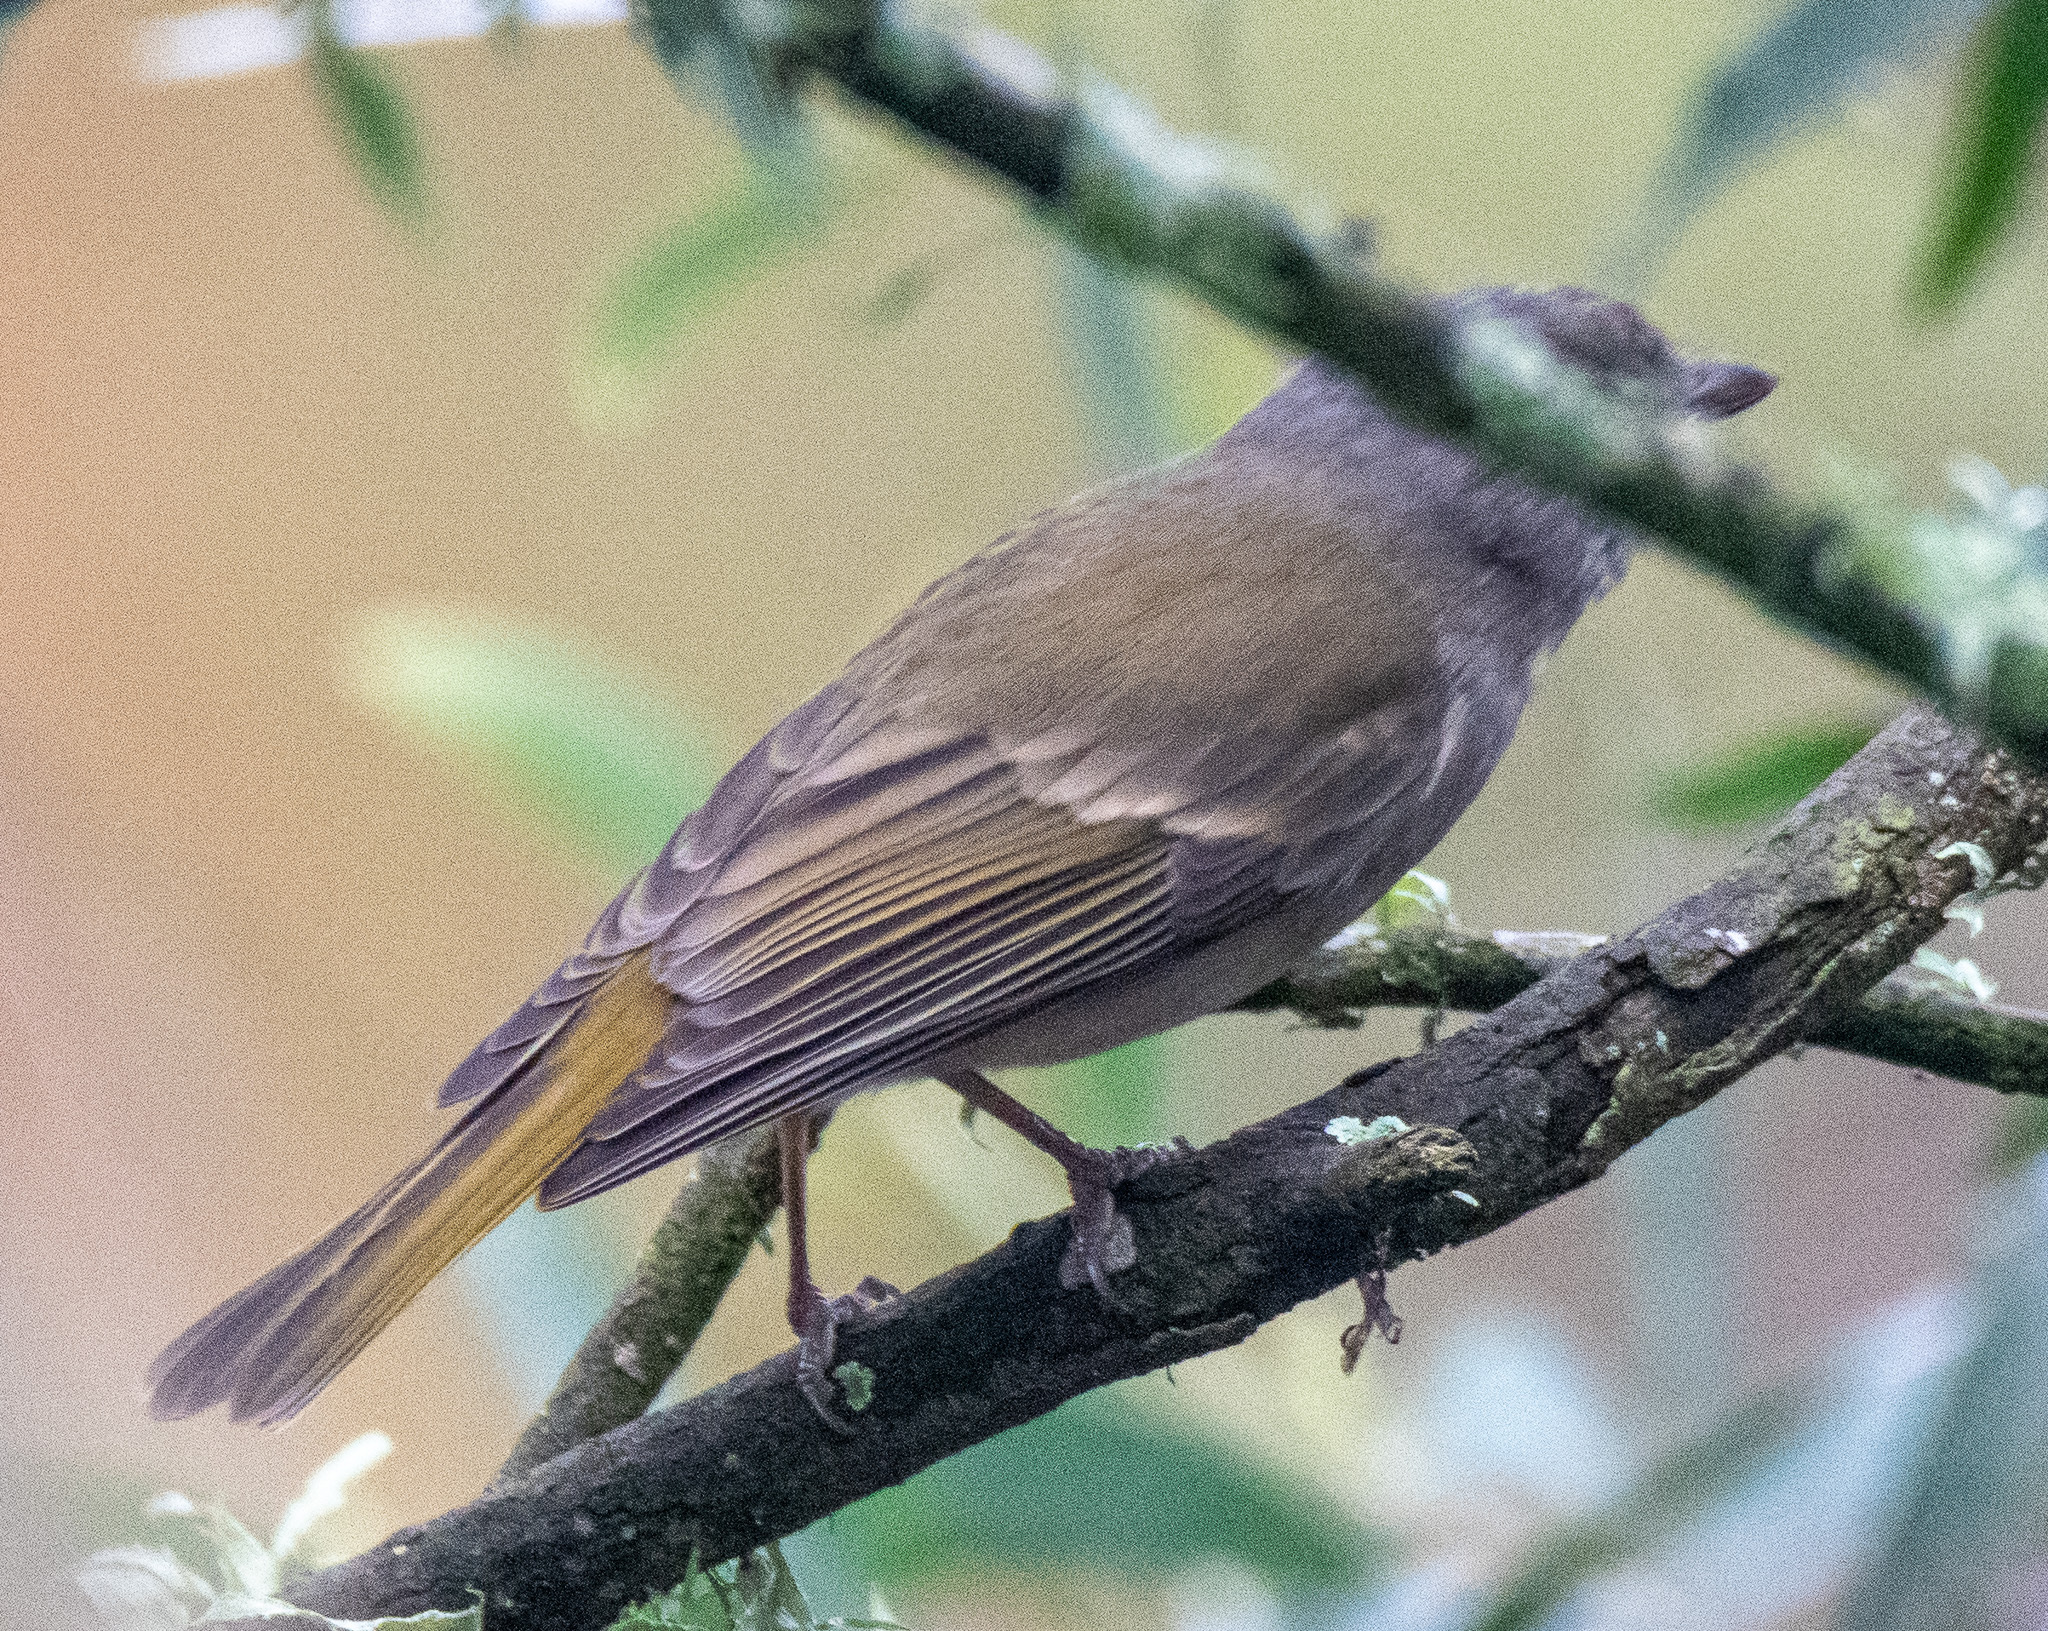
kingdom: Animalia
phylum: Chordata
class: Aves
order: Passeriformes
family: Pachycephalidae
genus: Pachycephala
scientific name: Pachycephala pectoralis
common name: Australian golden whistler
